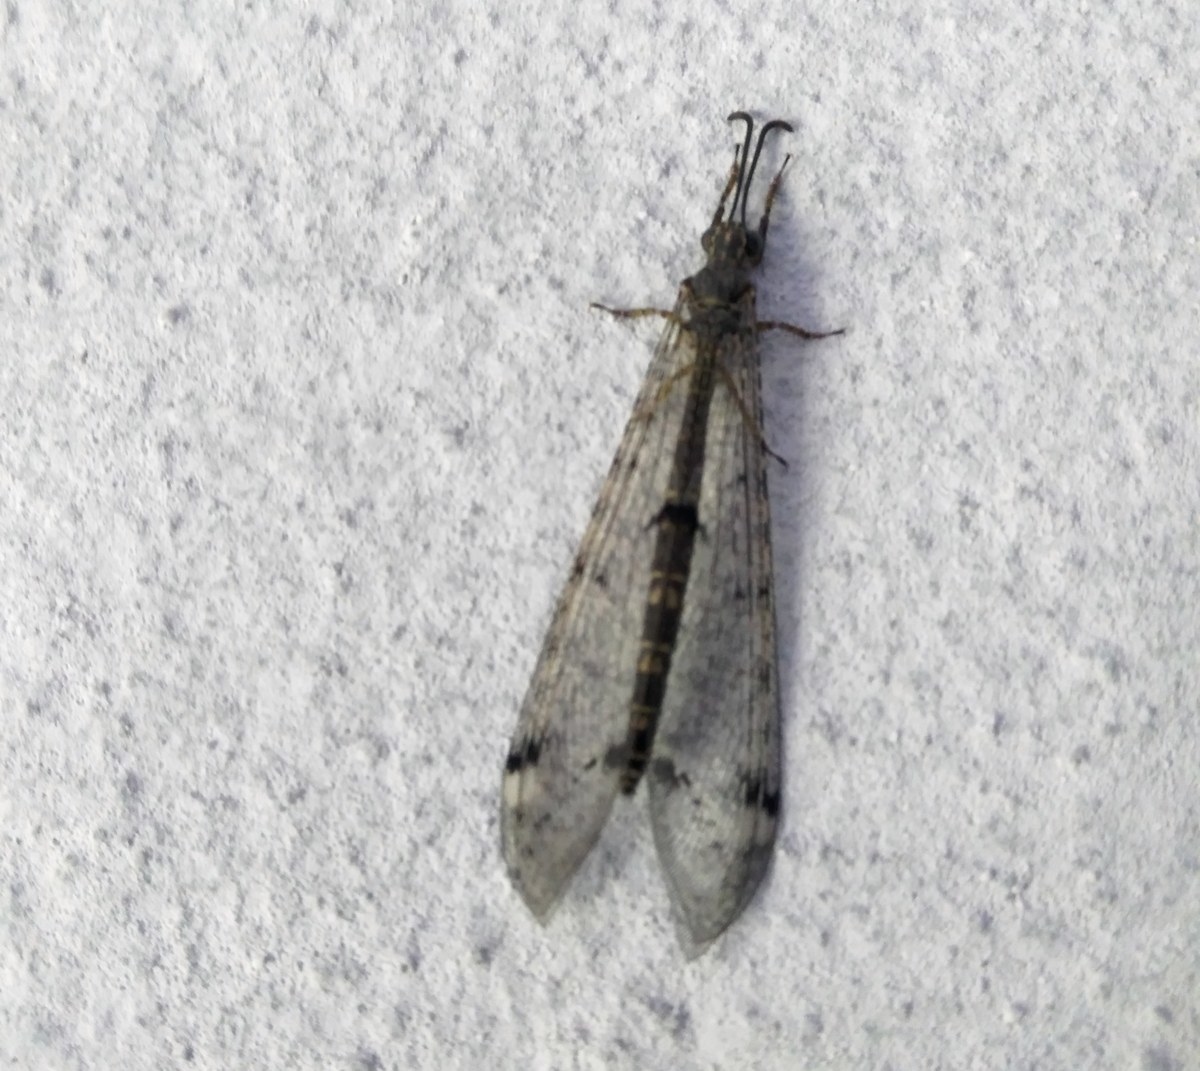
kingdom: Animalia
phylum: Arthropoda
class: Insecta
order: Neuroptera
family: Myrmeleontidae
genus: Distoleon
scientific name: Distoleon tetragrammicus
